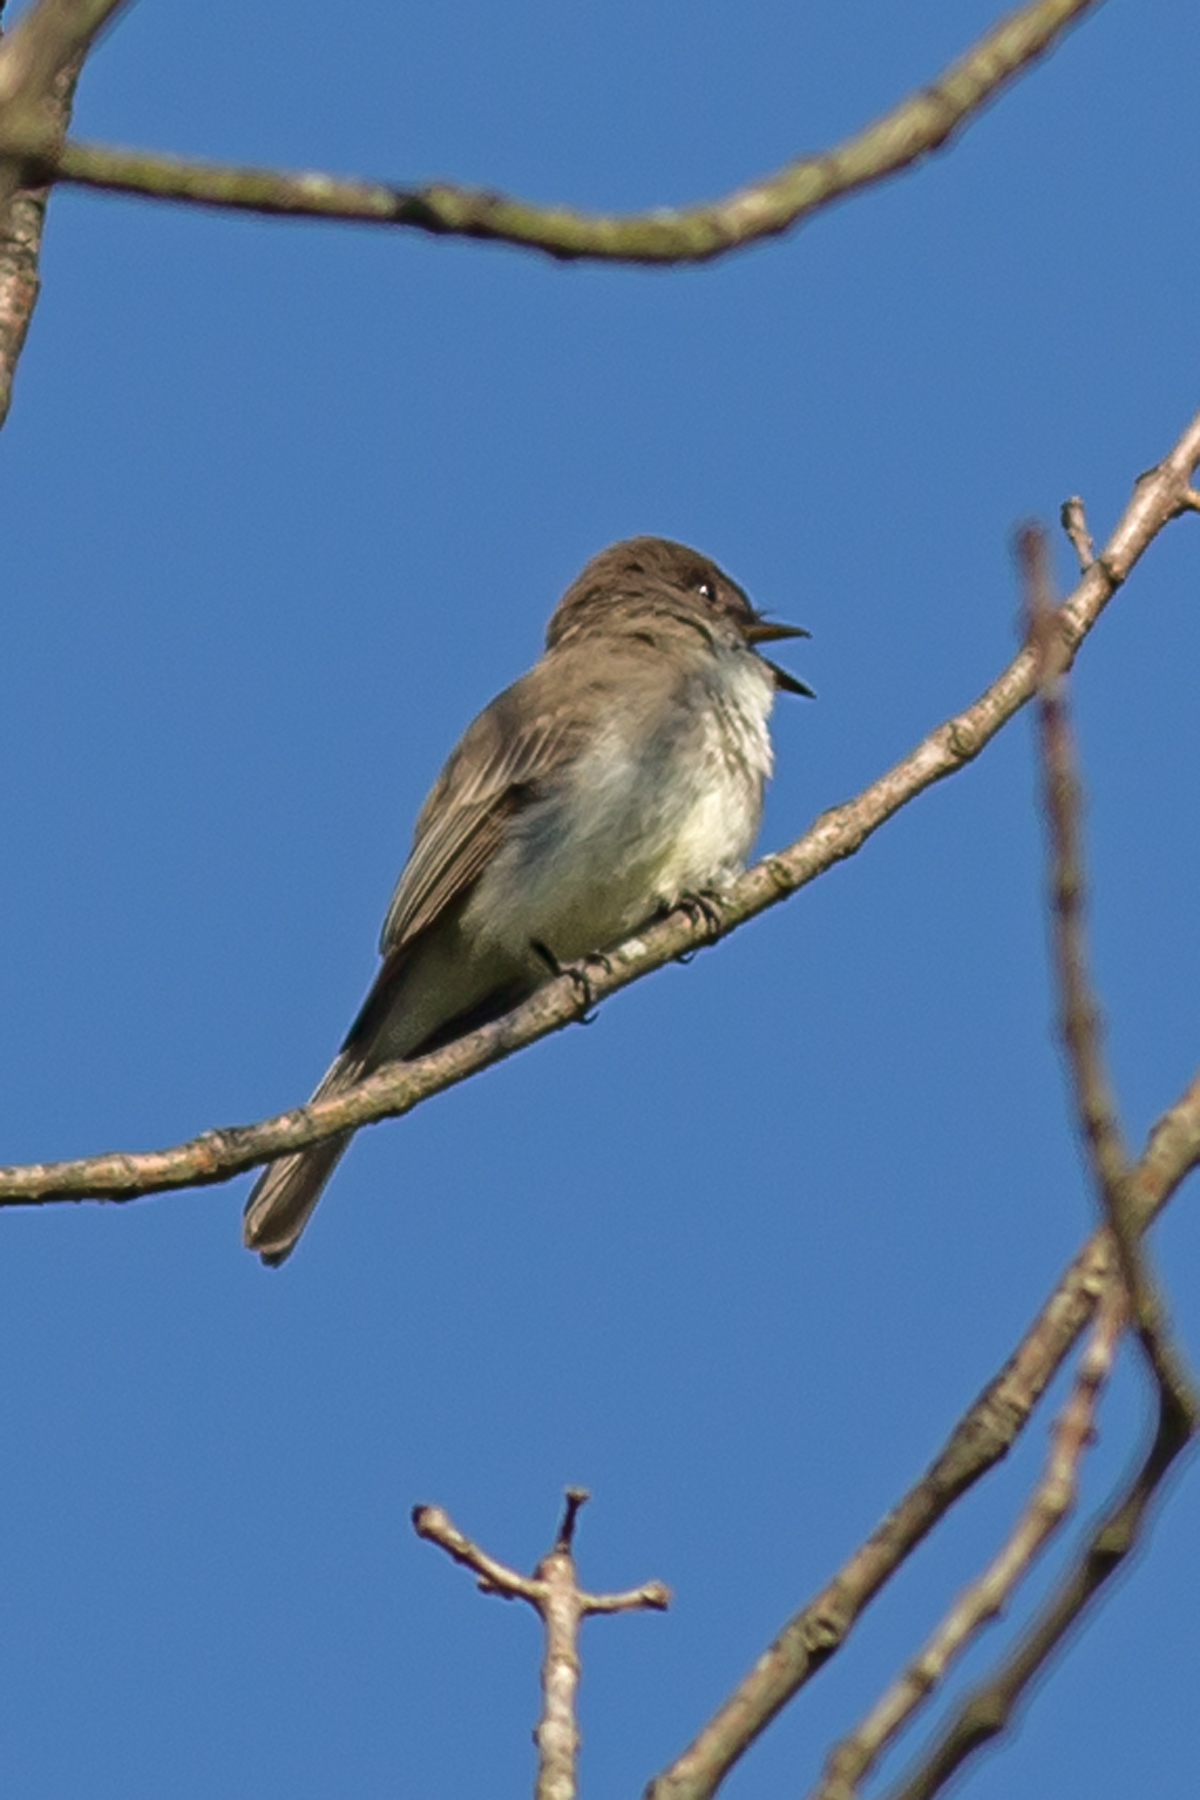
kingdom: Animalia
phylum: Chordata
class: Aves
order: Passeriformes
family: Tyrannidae
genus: Sayornis
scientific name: Sayornis phoebe
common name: Eastern phoebe
